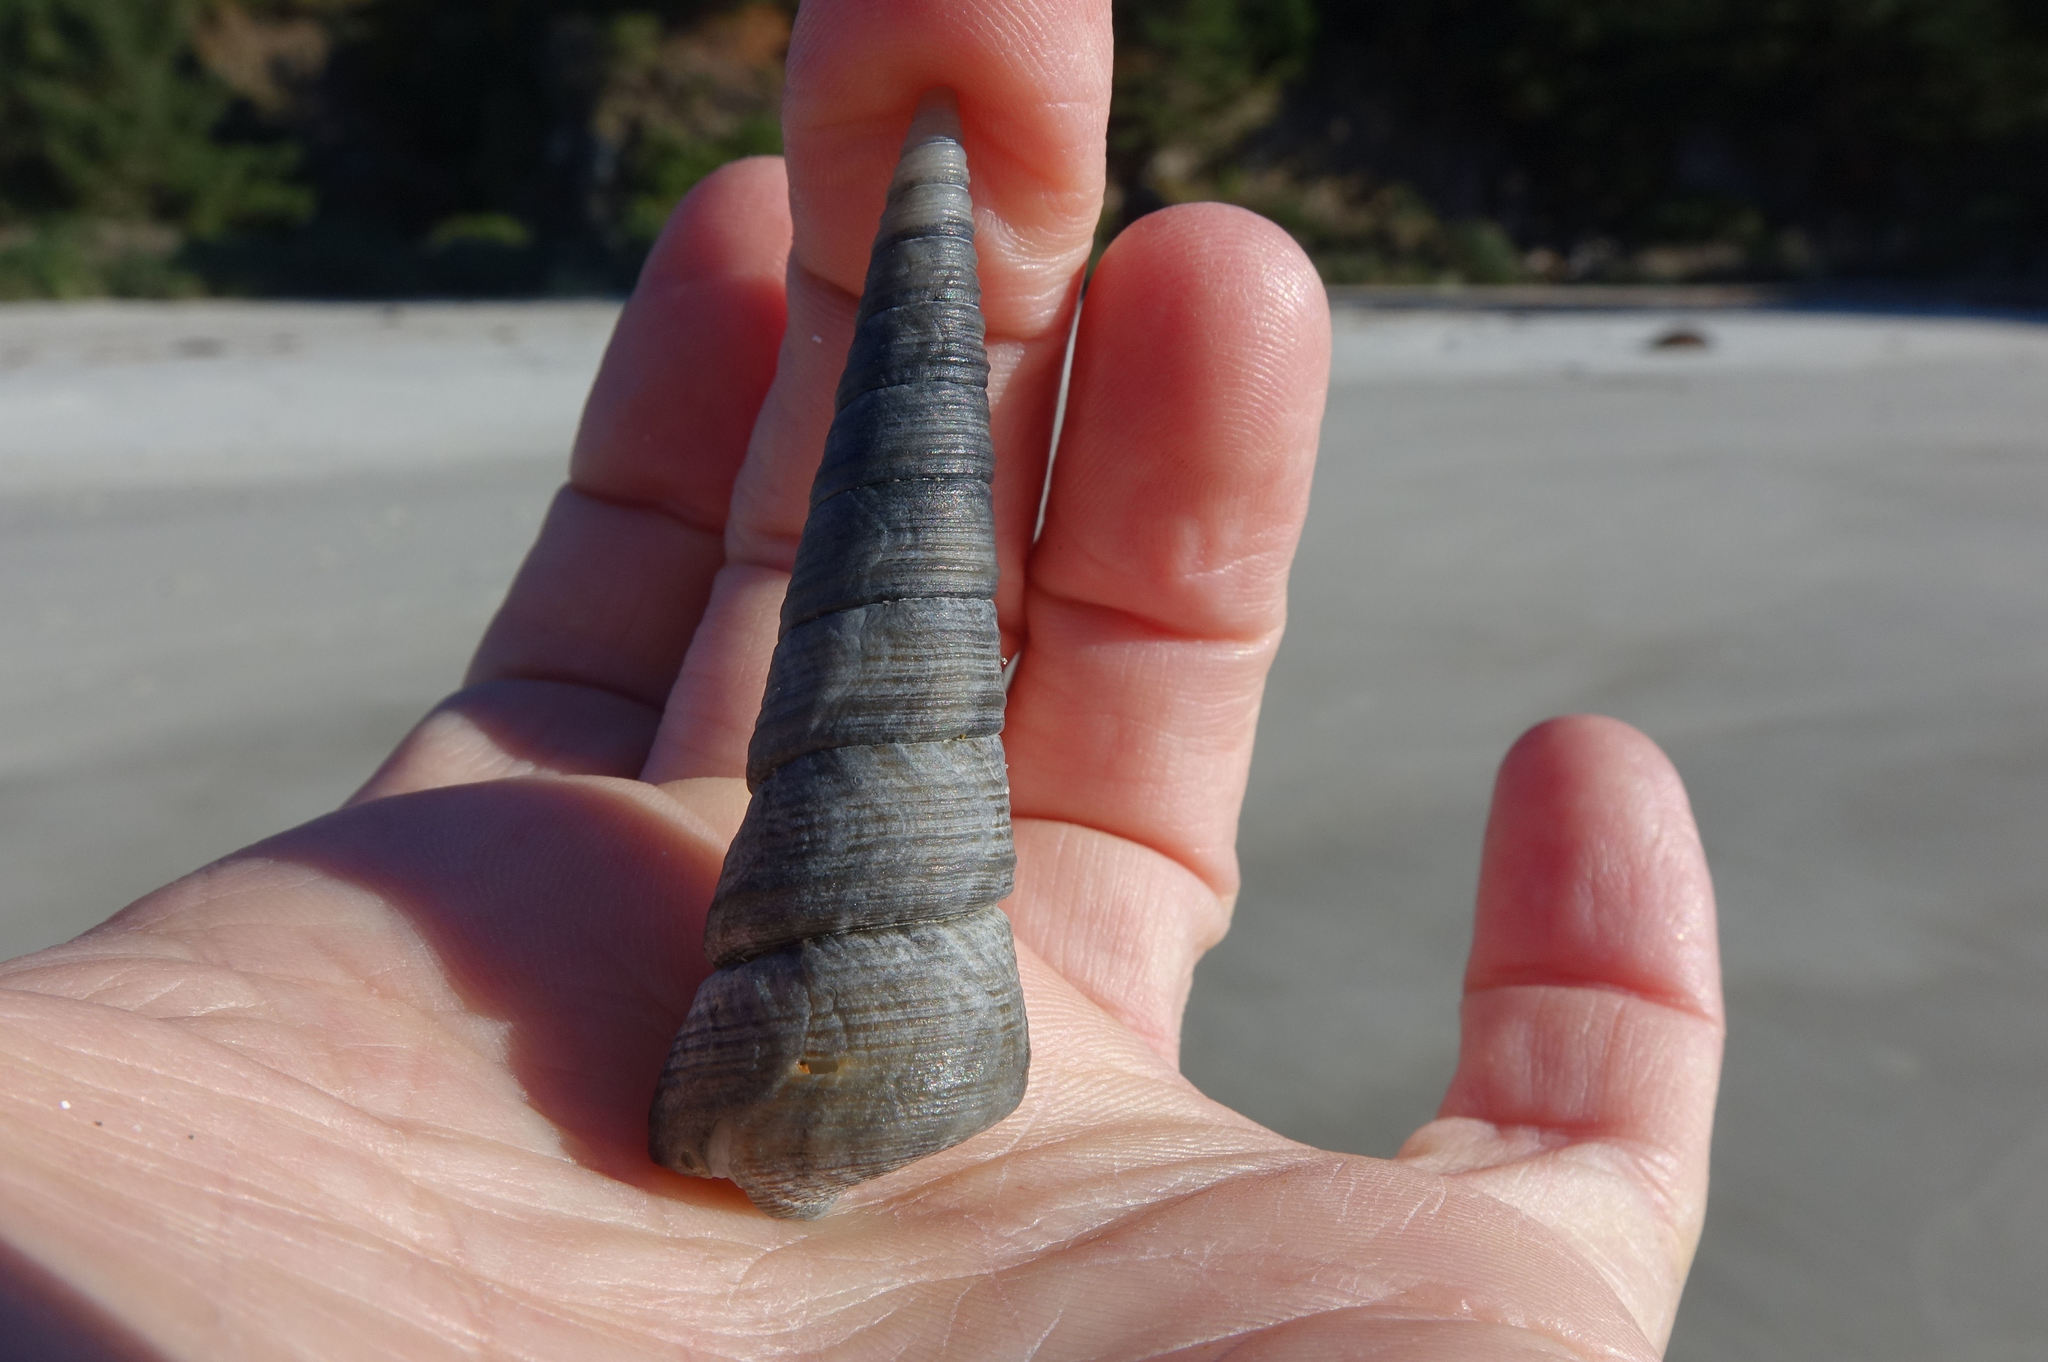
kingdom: Animalia
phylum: Mollusca
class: Gastropoda
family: Turritellidae
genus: Maoricolpus
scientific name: Maoricolpus roseus
